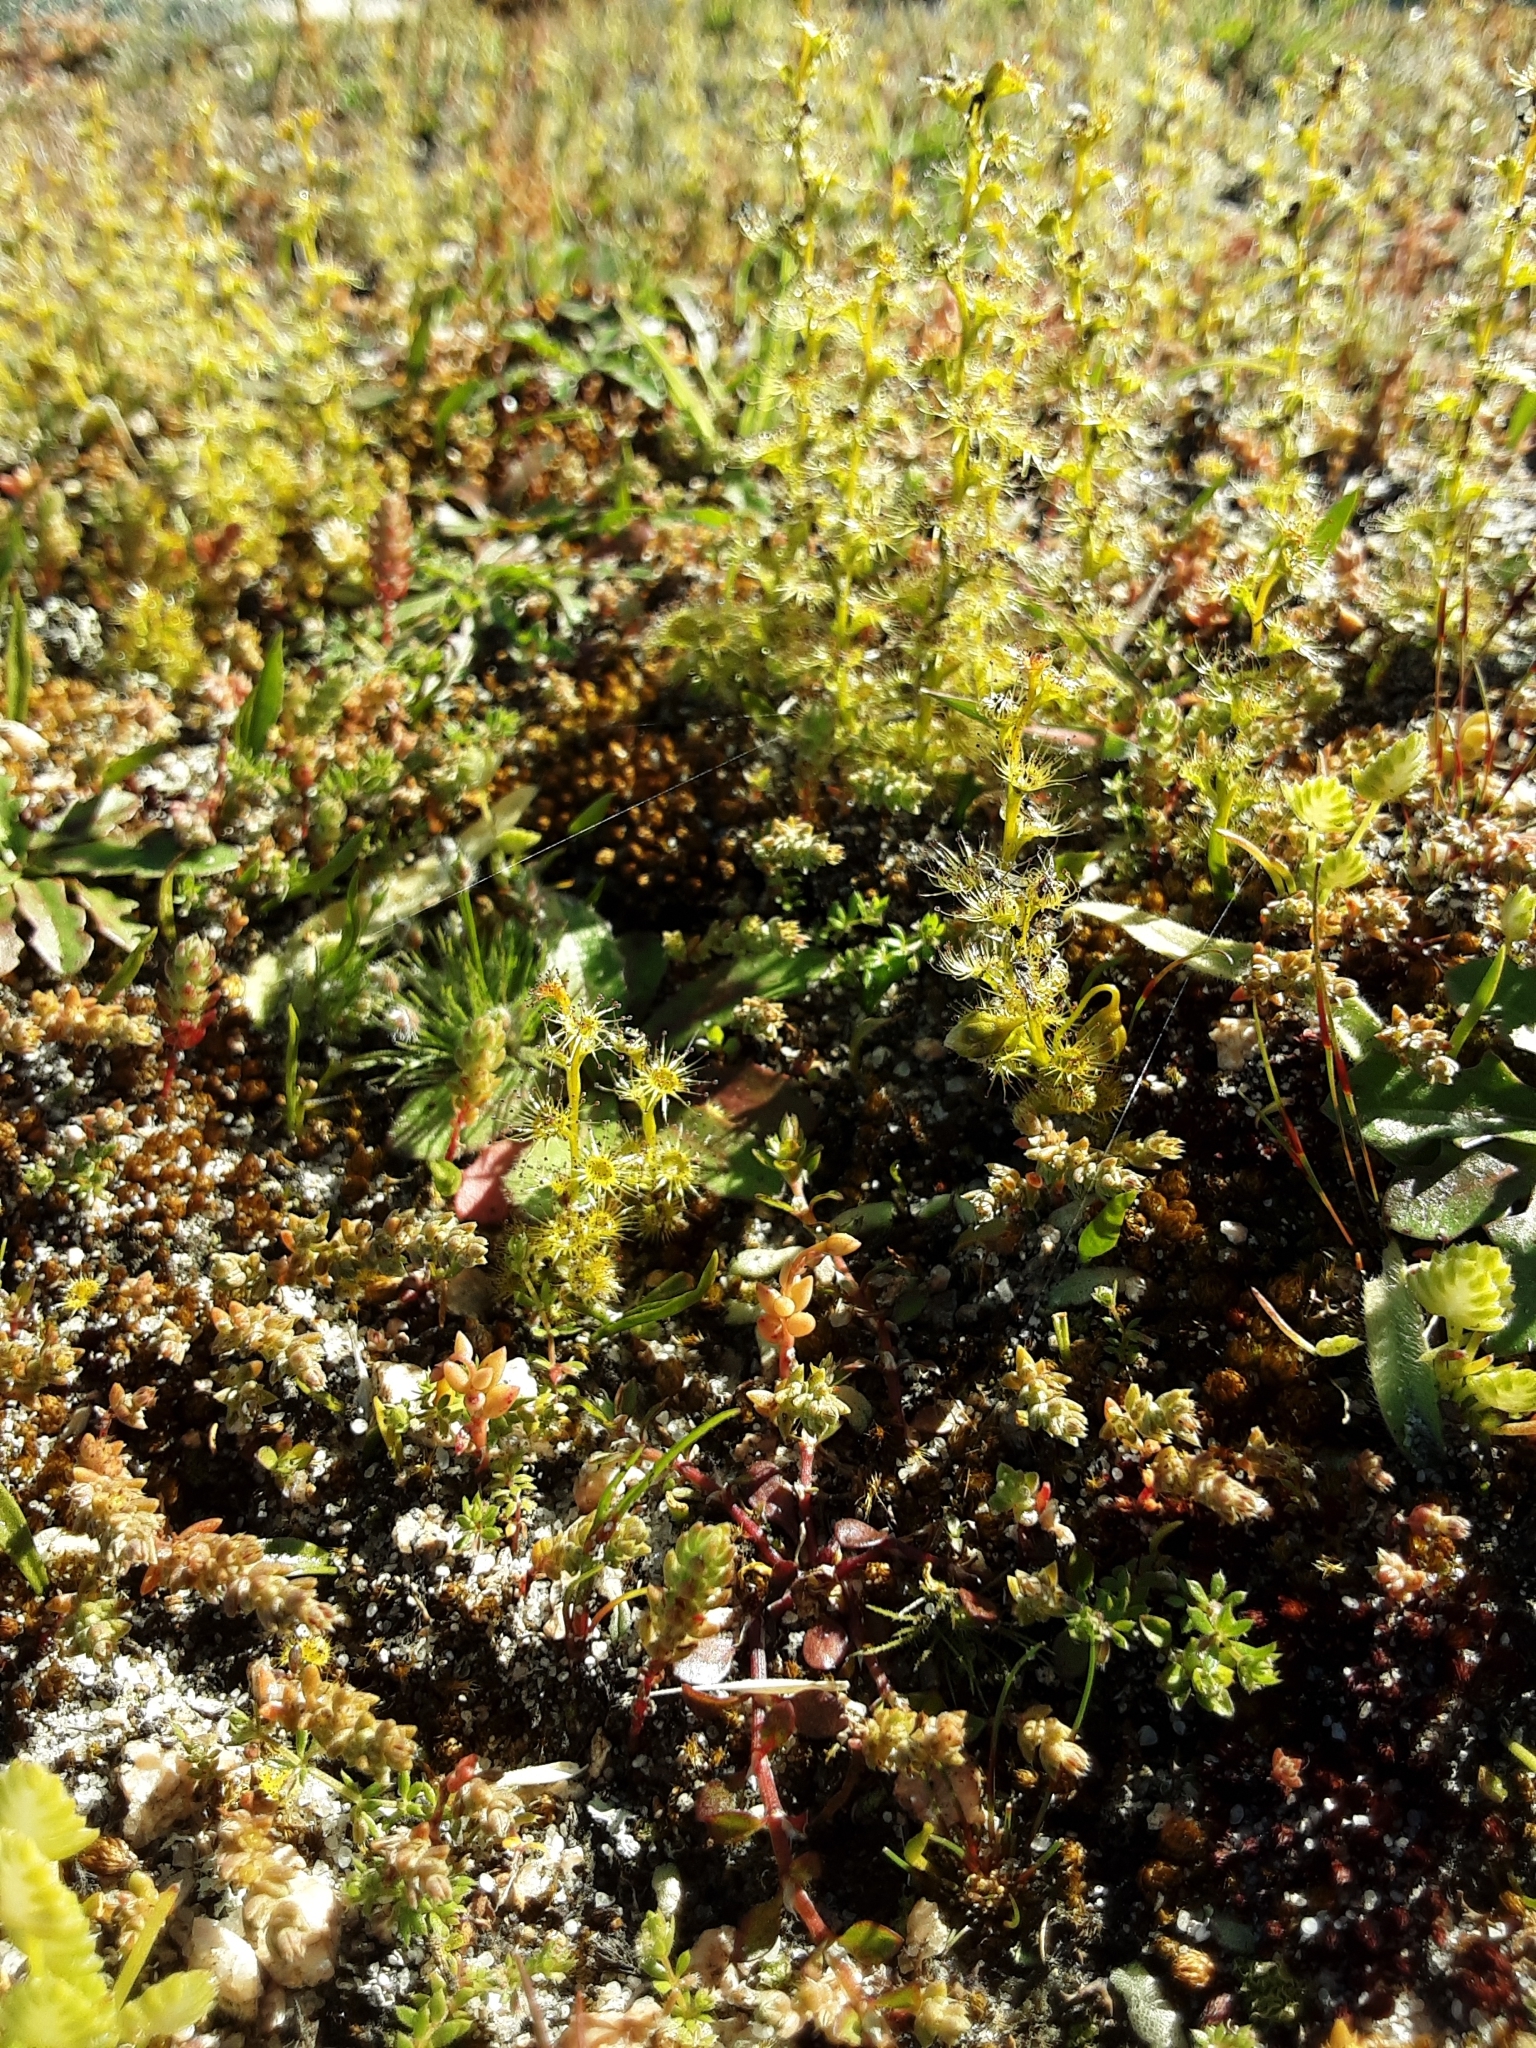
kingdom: Plantae
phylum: Tracheophyta
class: Magnoliopsida
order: Caryophyllales
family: Droseraceae
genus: Drosera
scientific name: Drosera ramellosa
